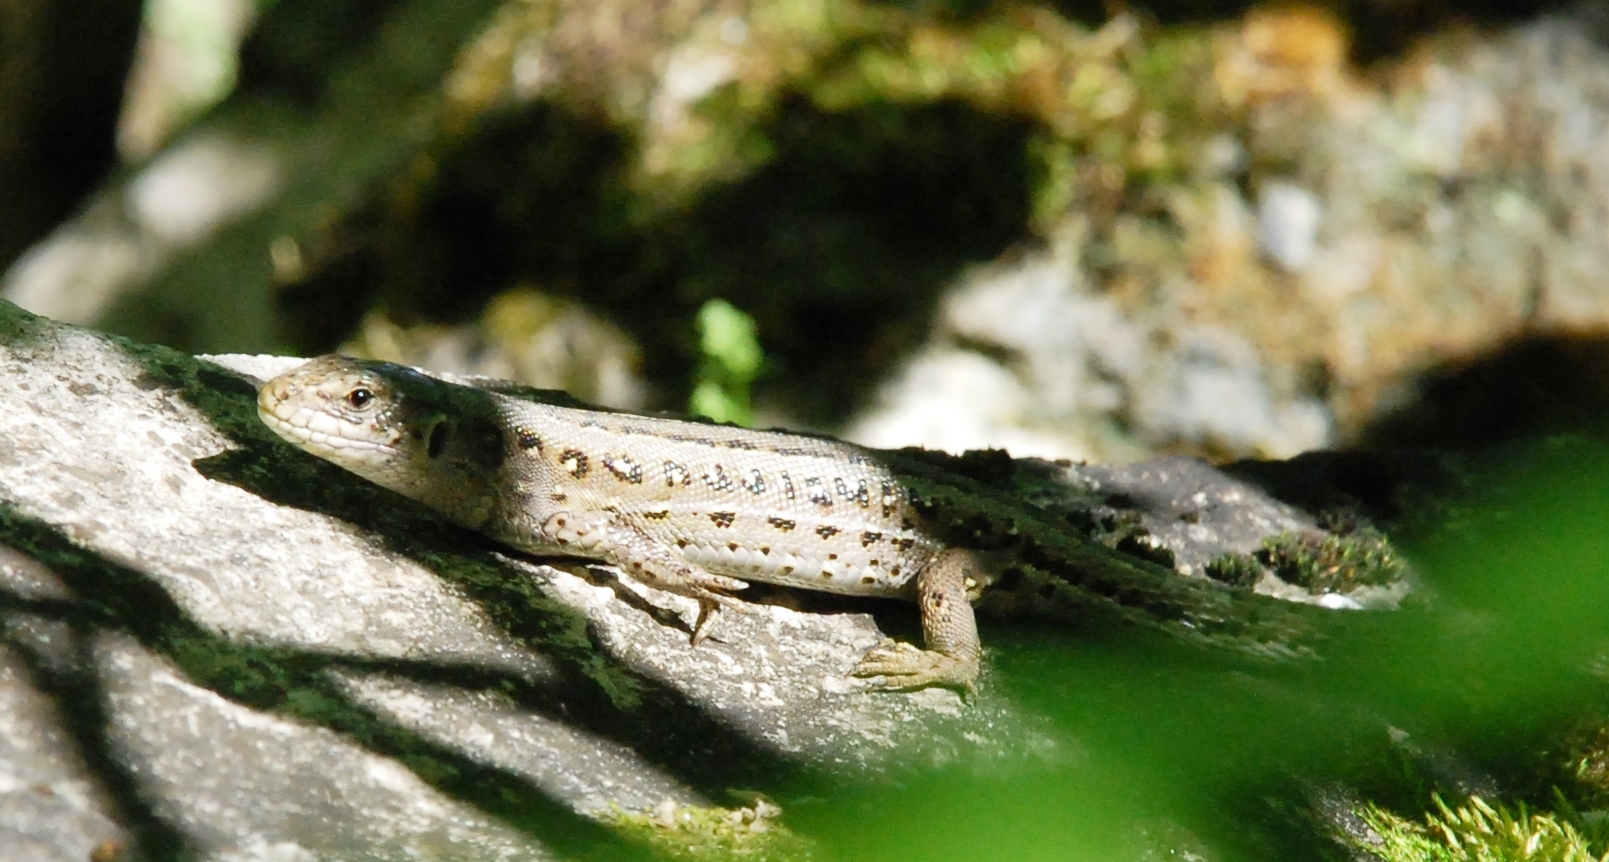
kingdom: Animalia
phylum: Chordata
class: Squamata
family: Lacertidae
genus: Lacerta
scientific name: Lacerta agilis
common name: Sand lizard
